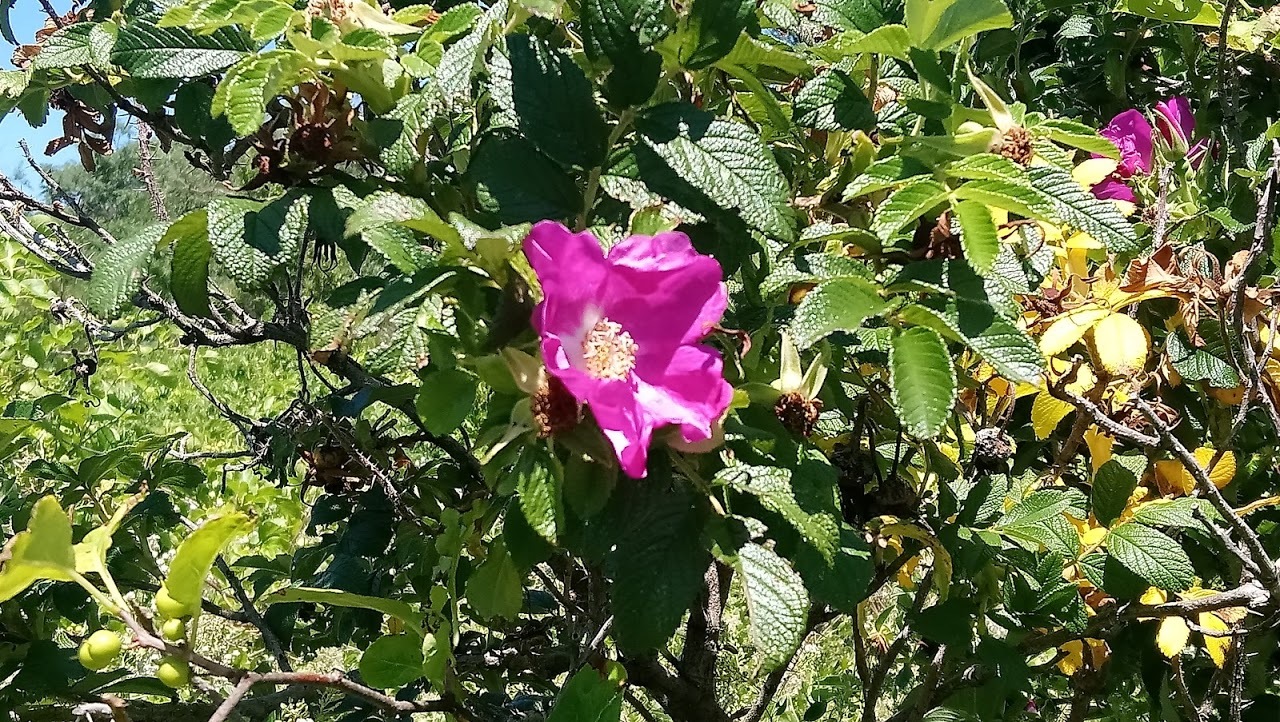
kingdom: Plantae
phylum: Tracheophyta
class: Magnoliopsida
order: Rosales
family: Rosaceae
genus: Rosa
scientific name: Rosa rugosa
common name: Japanese rose
